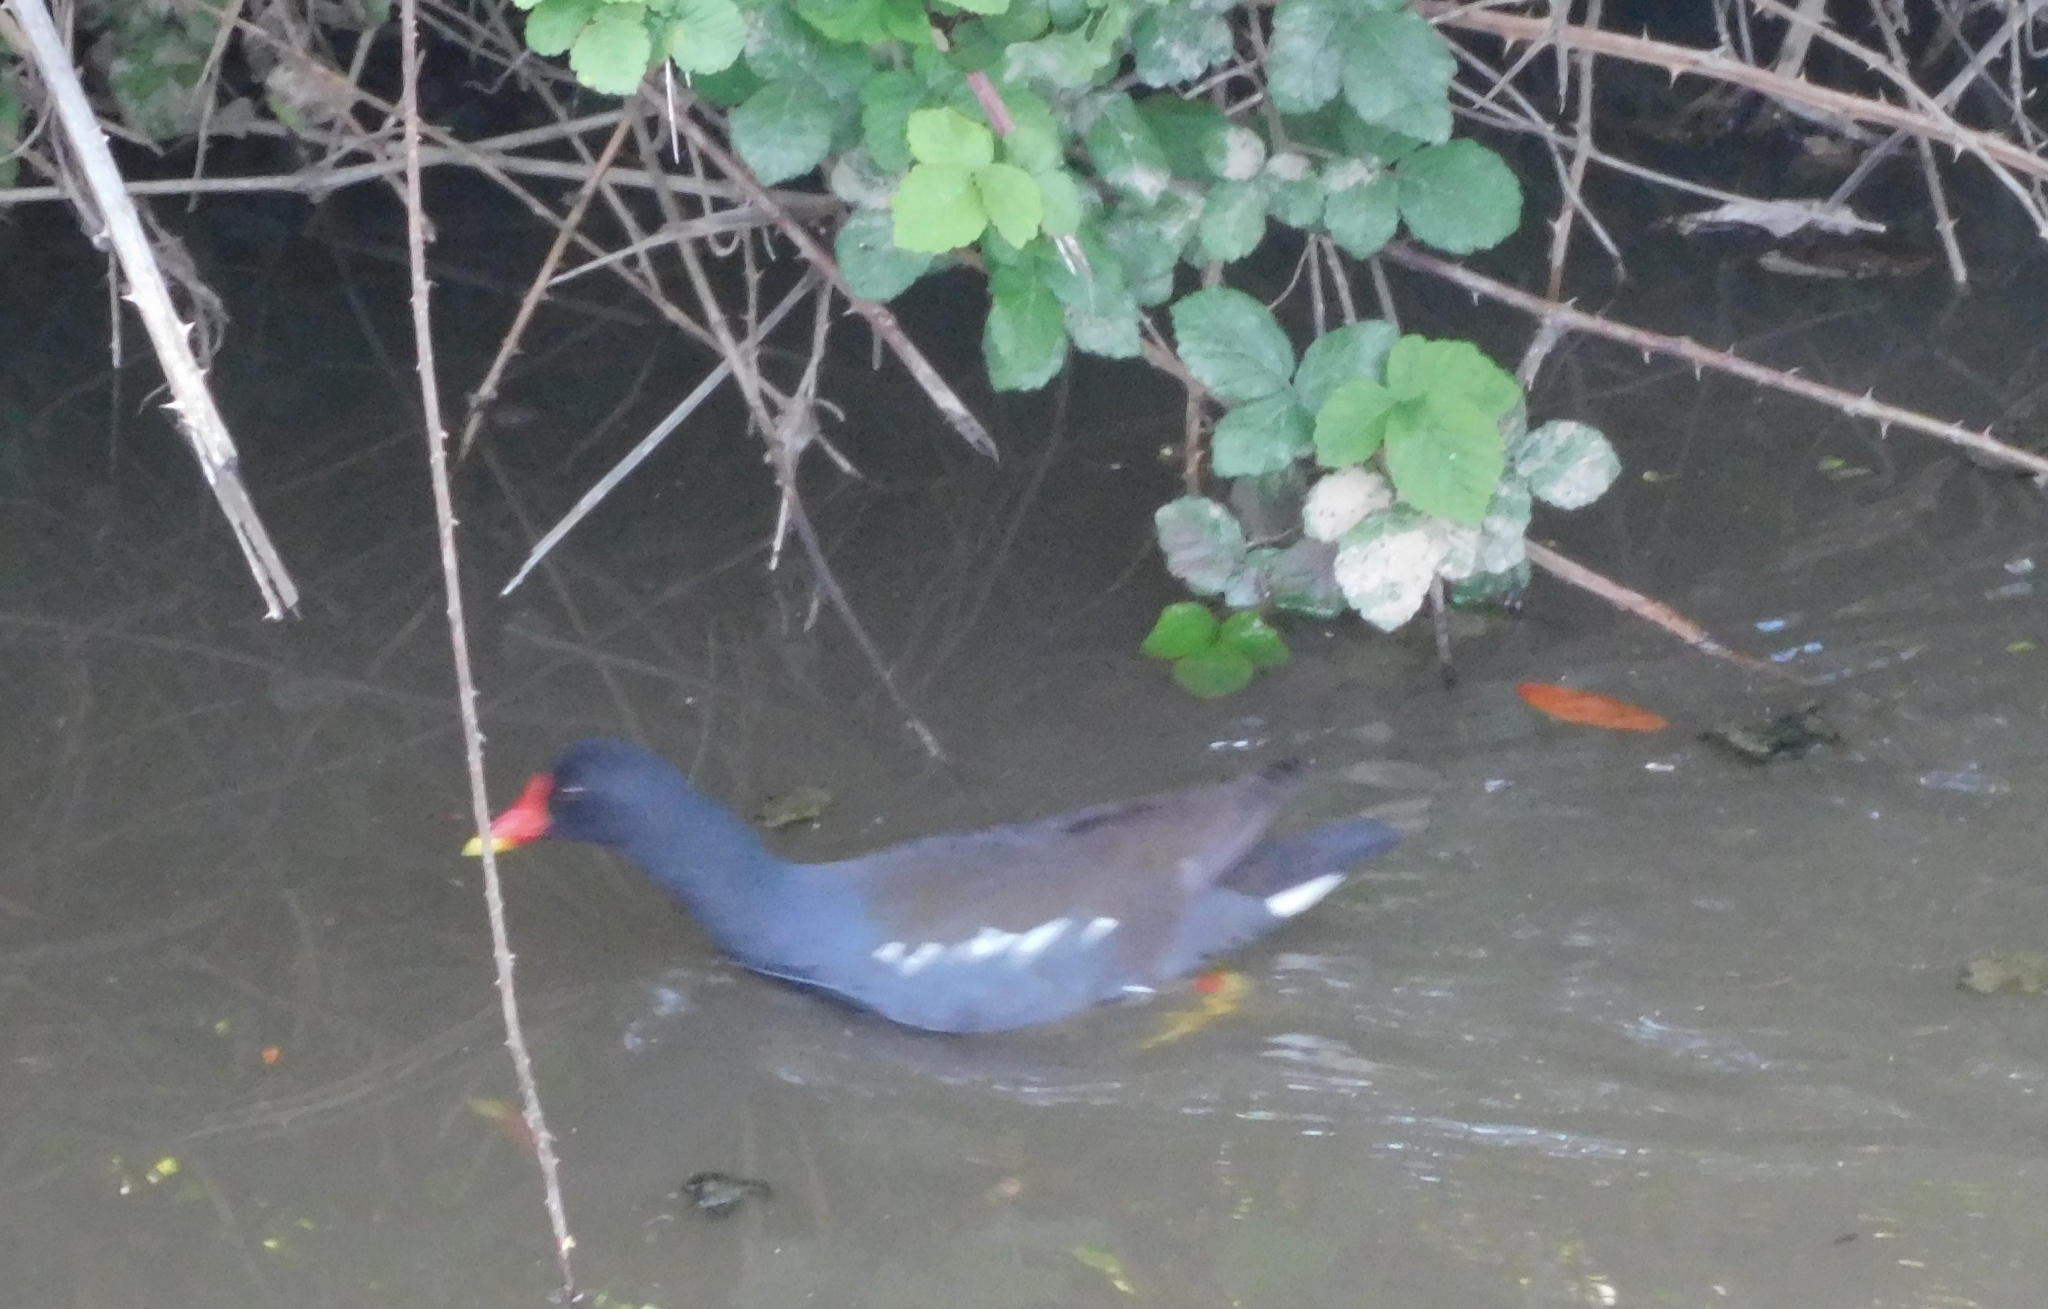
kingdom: Animalia
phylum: Chordata
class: Aves
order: Gruiformes
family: Rallidae
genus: Gallinula
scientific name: Gallinula chloropus
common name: Common moorhen
